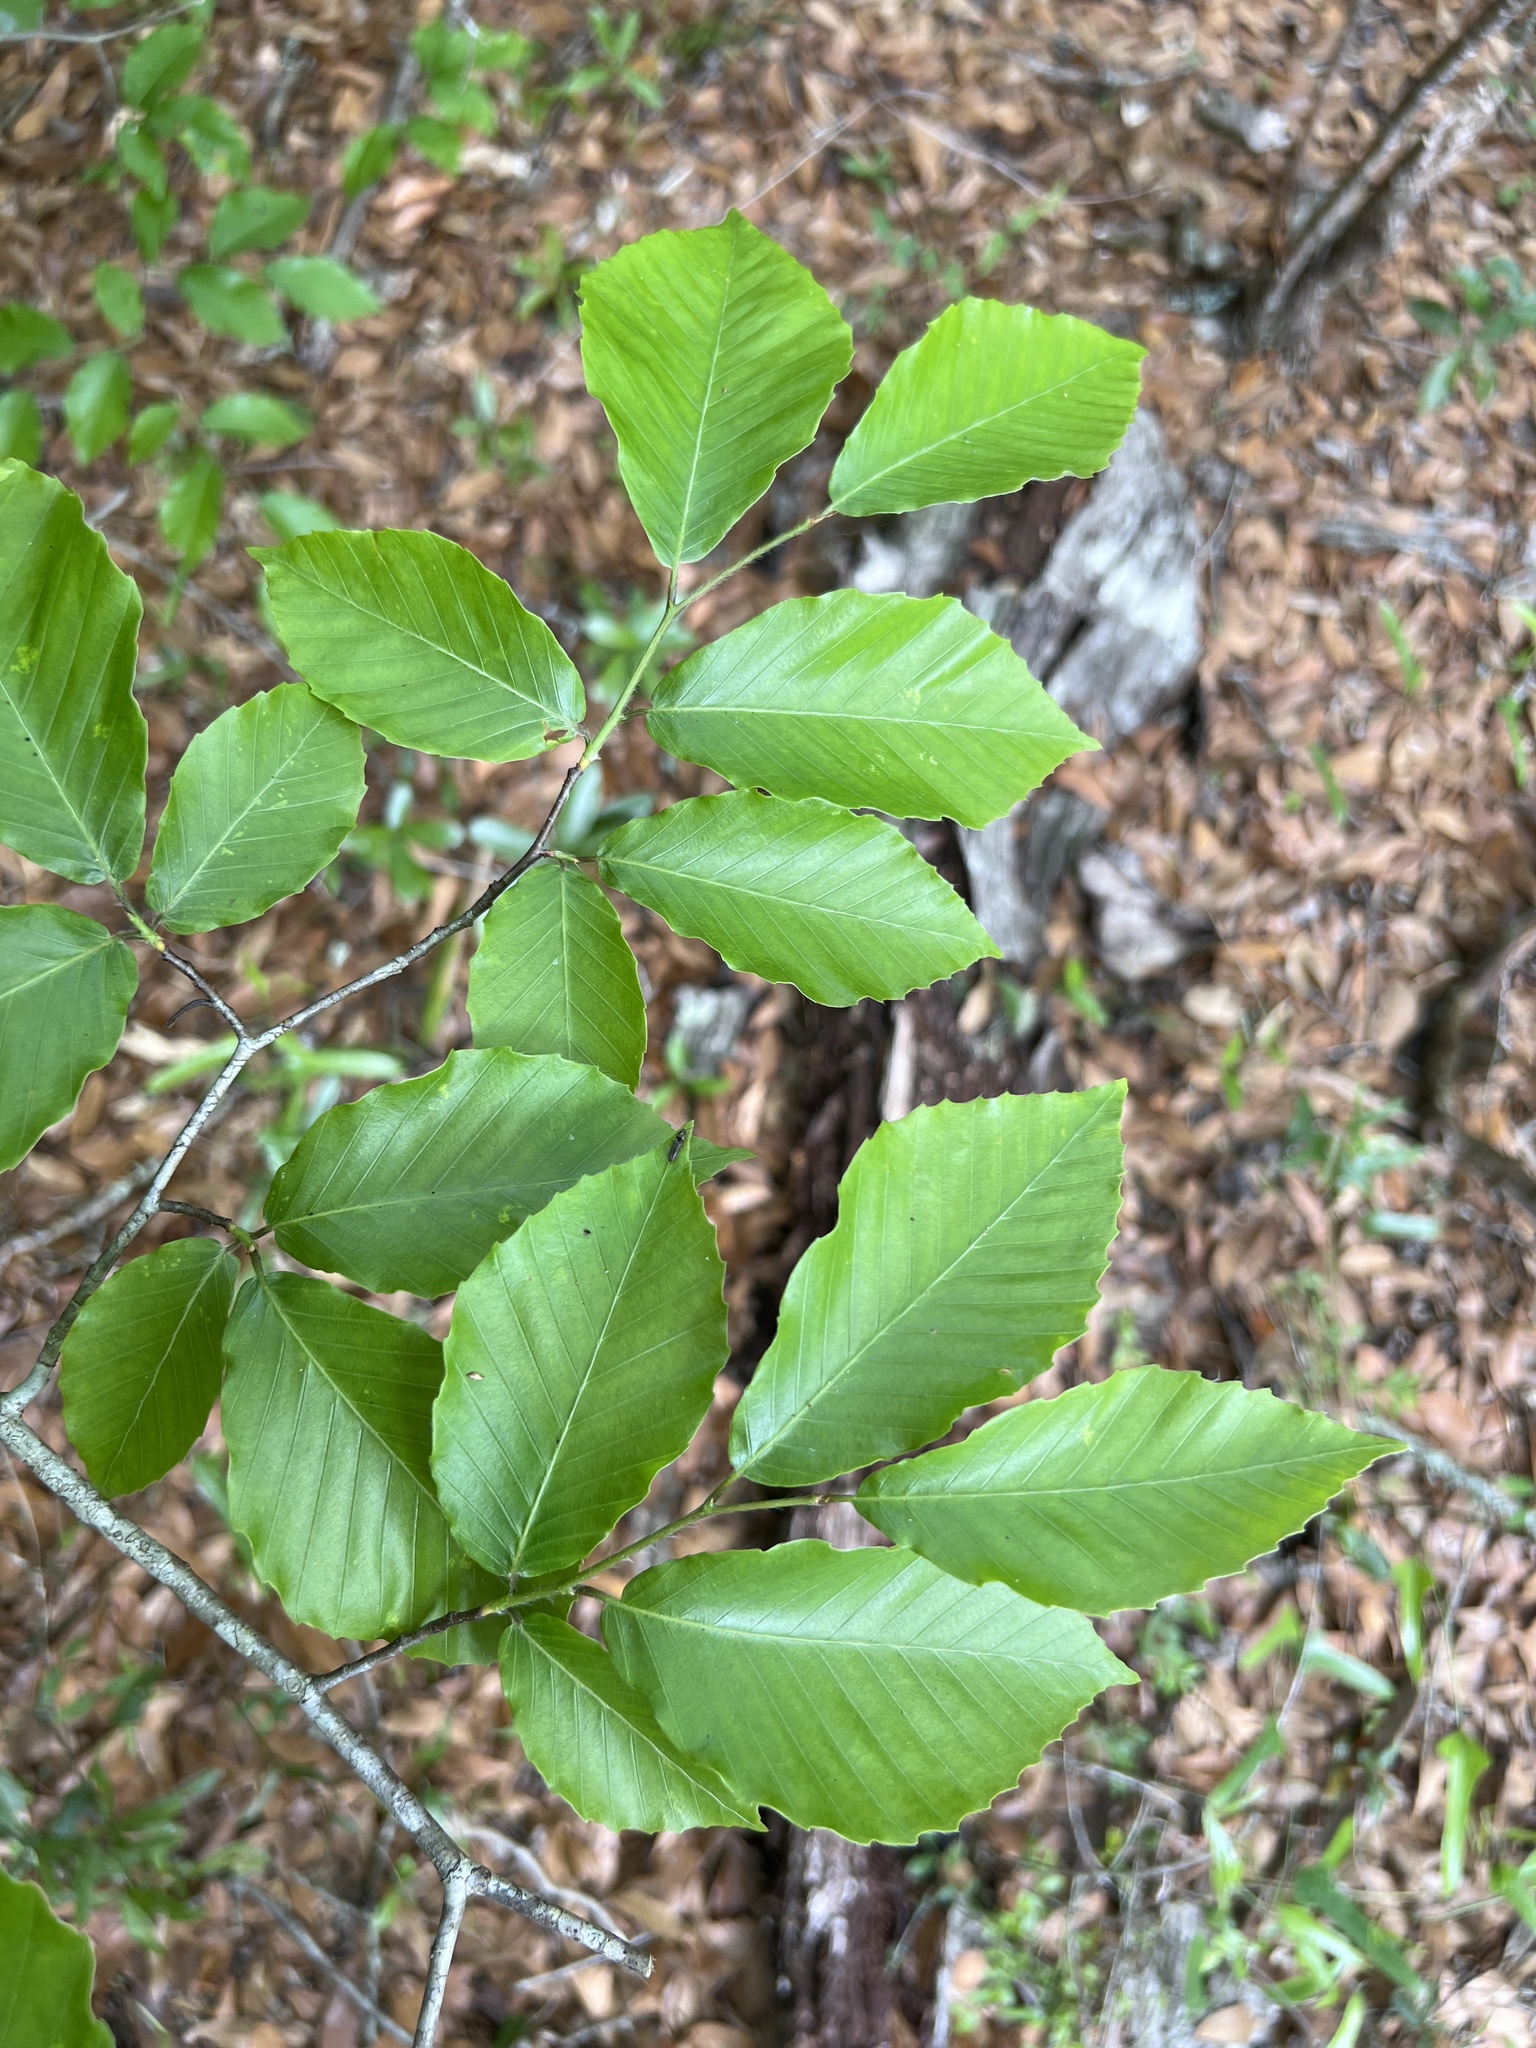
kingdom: Plantae
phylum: Tracheophyta
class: Magnoliopsida
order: Fagales
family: Fagaceae
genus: Fagus
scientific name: Fagus grandifolia
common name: American beech
